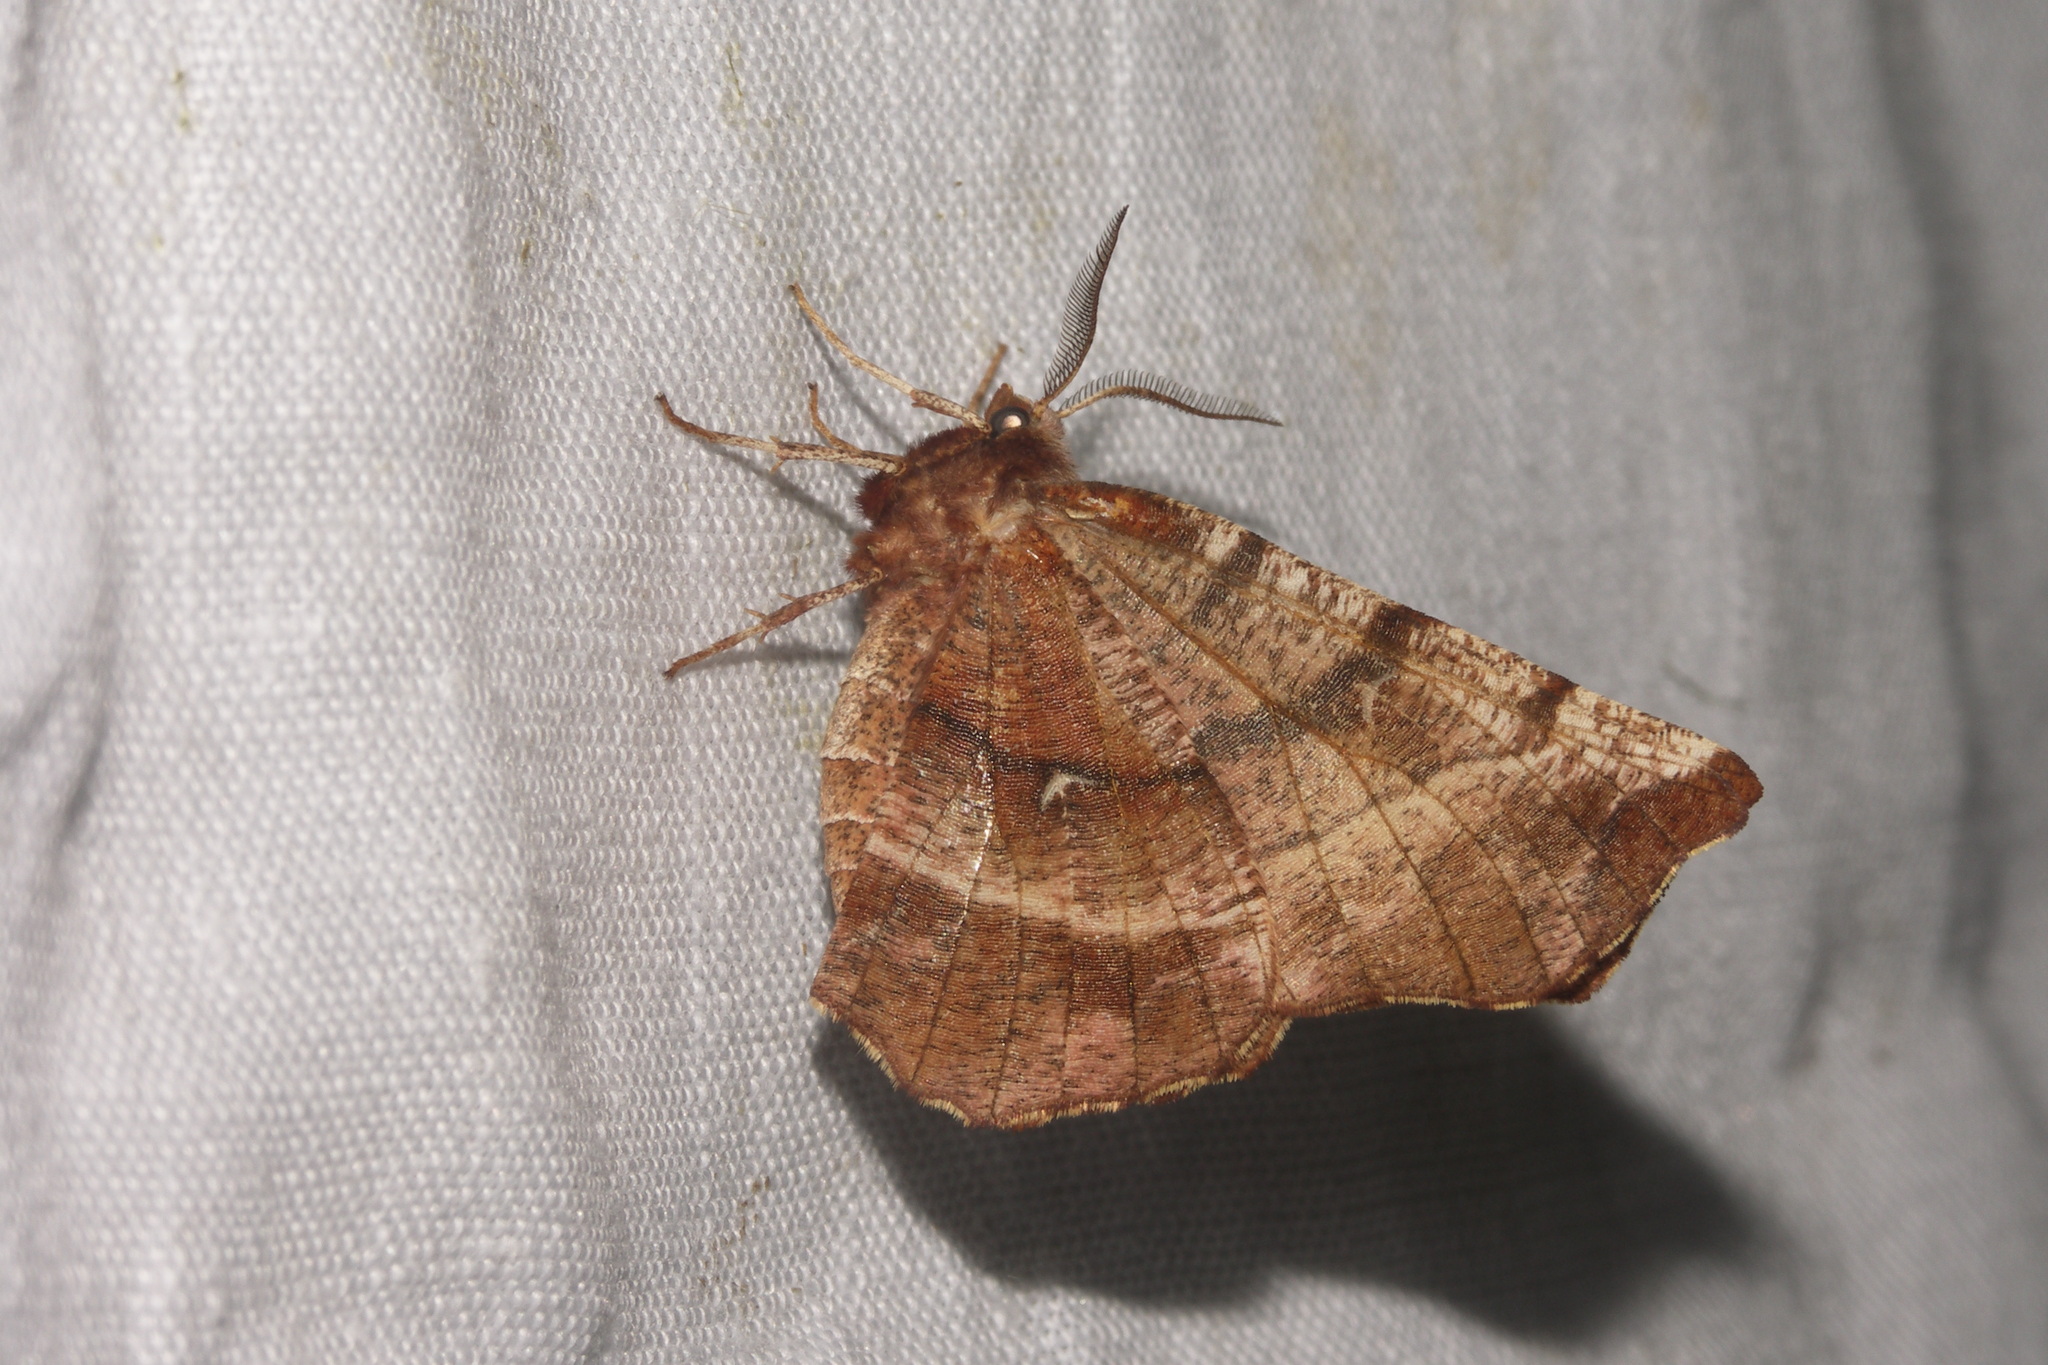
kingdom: Animalia
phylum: Arthropoda
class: Insecta
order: Lepidoptera
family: Geometridae
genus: Selenia
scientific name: Selenia dentaria
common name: Early thorn
